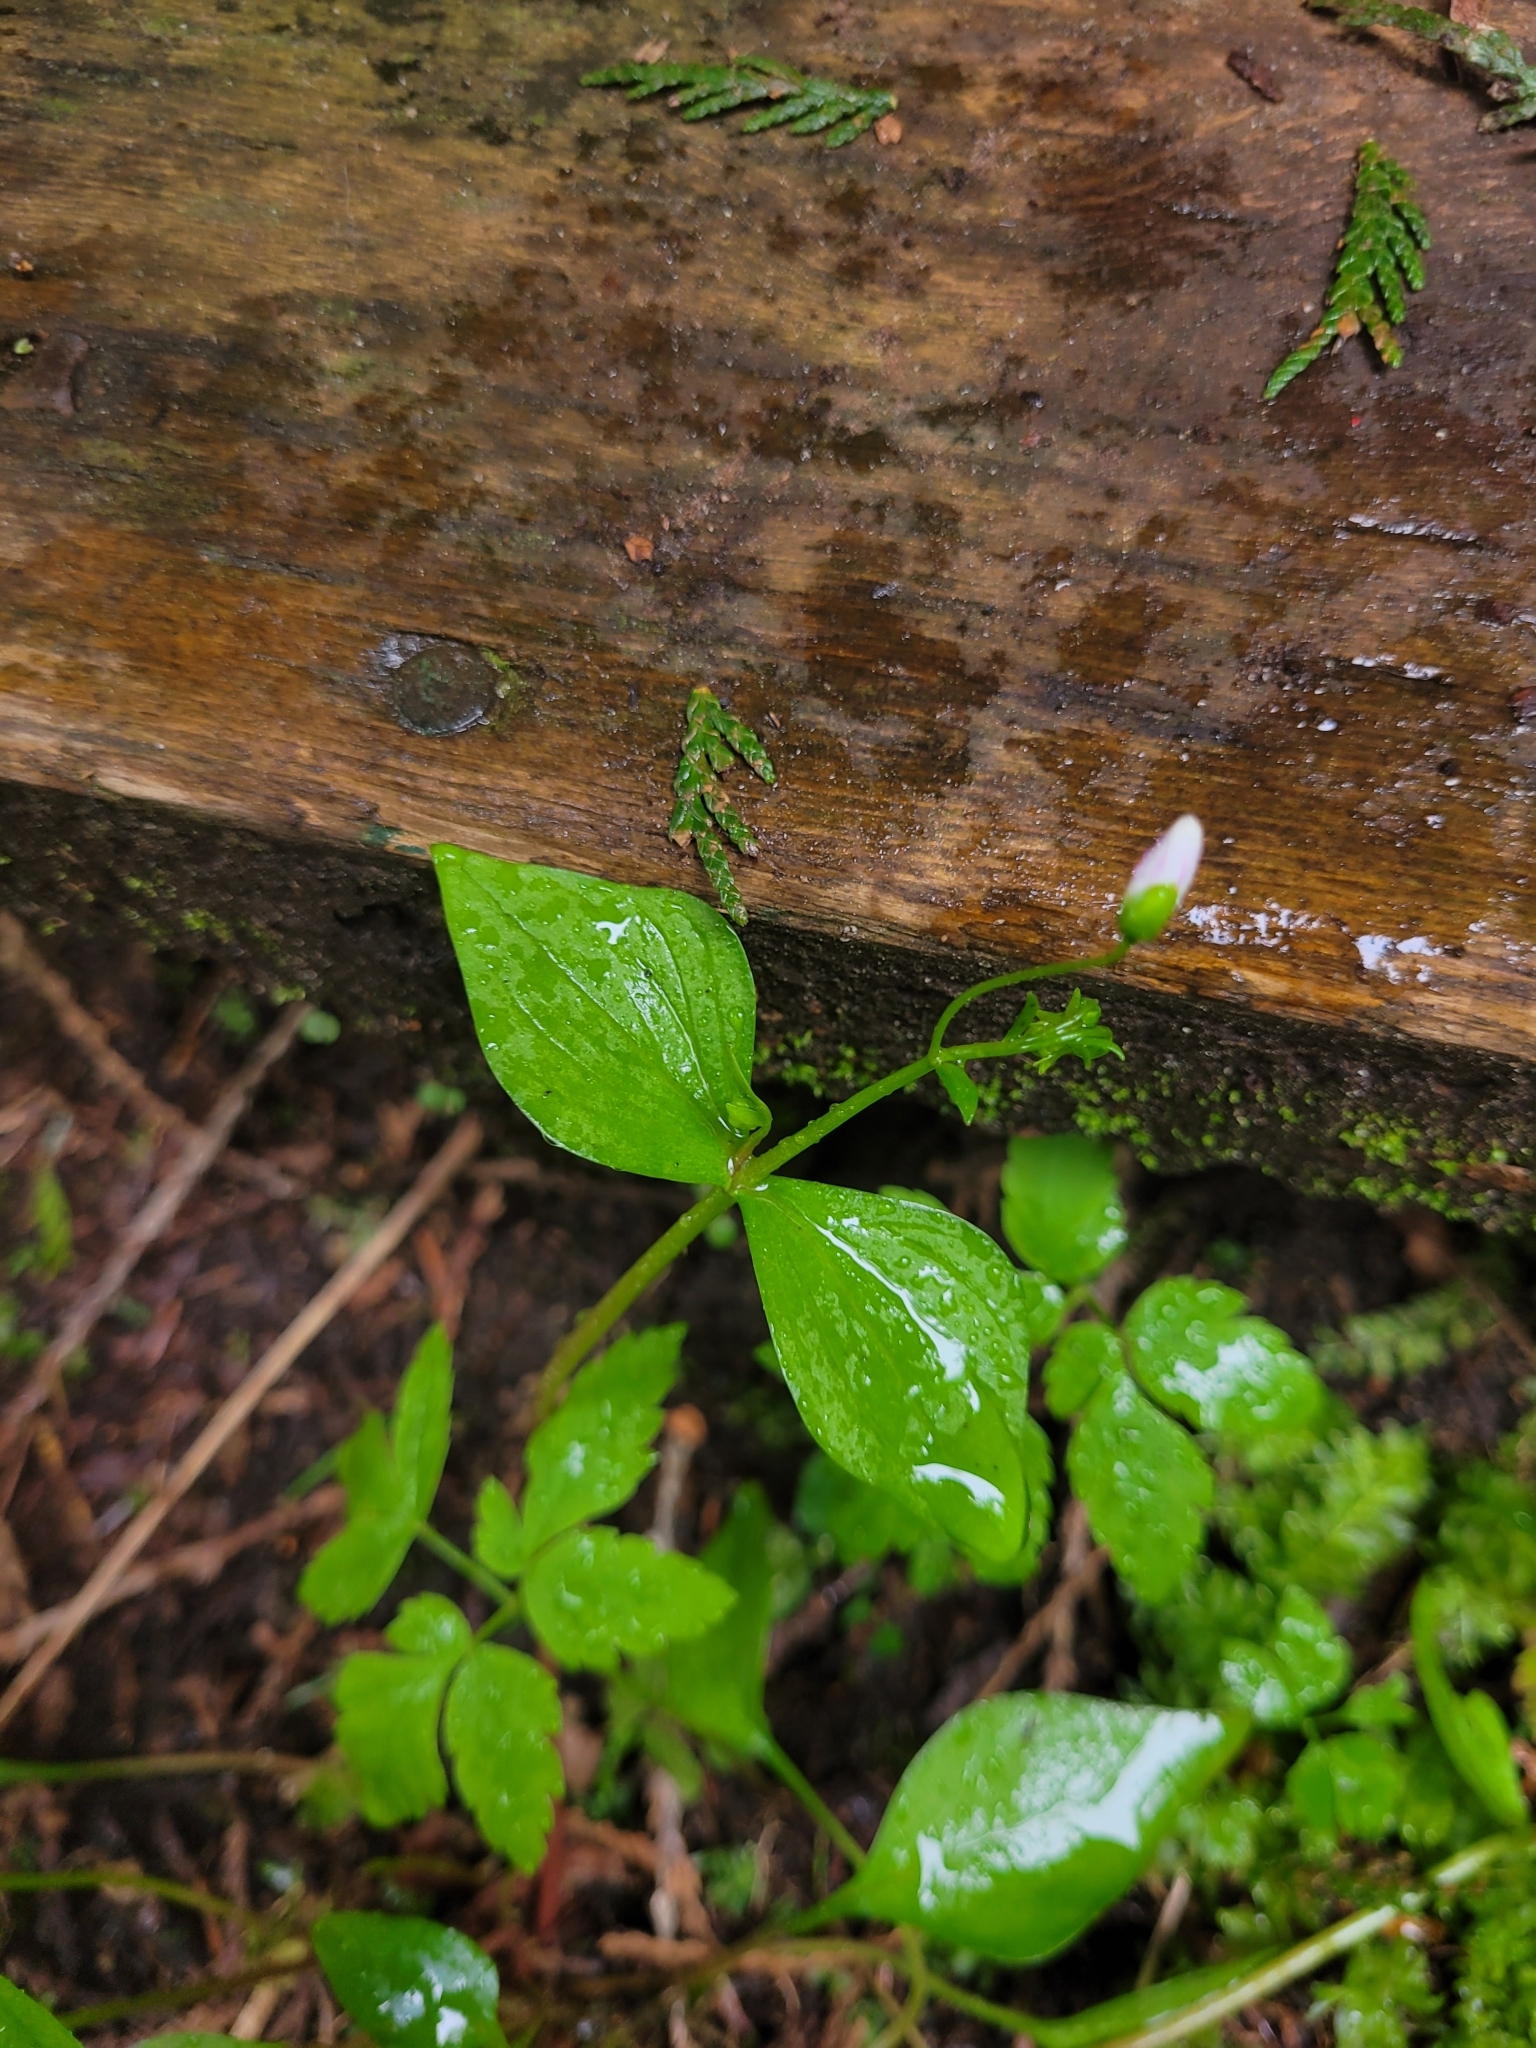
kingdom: Plantae
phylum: Tracheophyta
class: Magnoliopsida
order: Caryophyllales
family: Montiaceae
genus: Claytonia
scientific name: Claytonia sibirica
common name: Pink purslane
